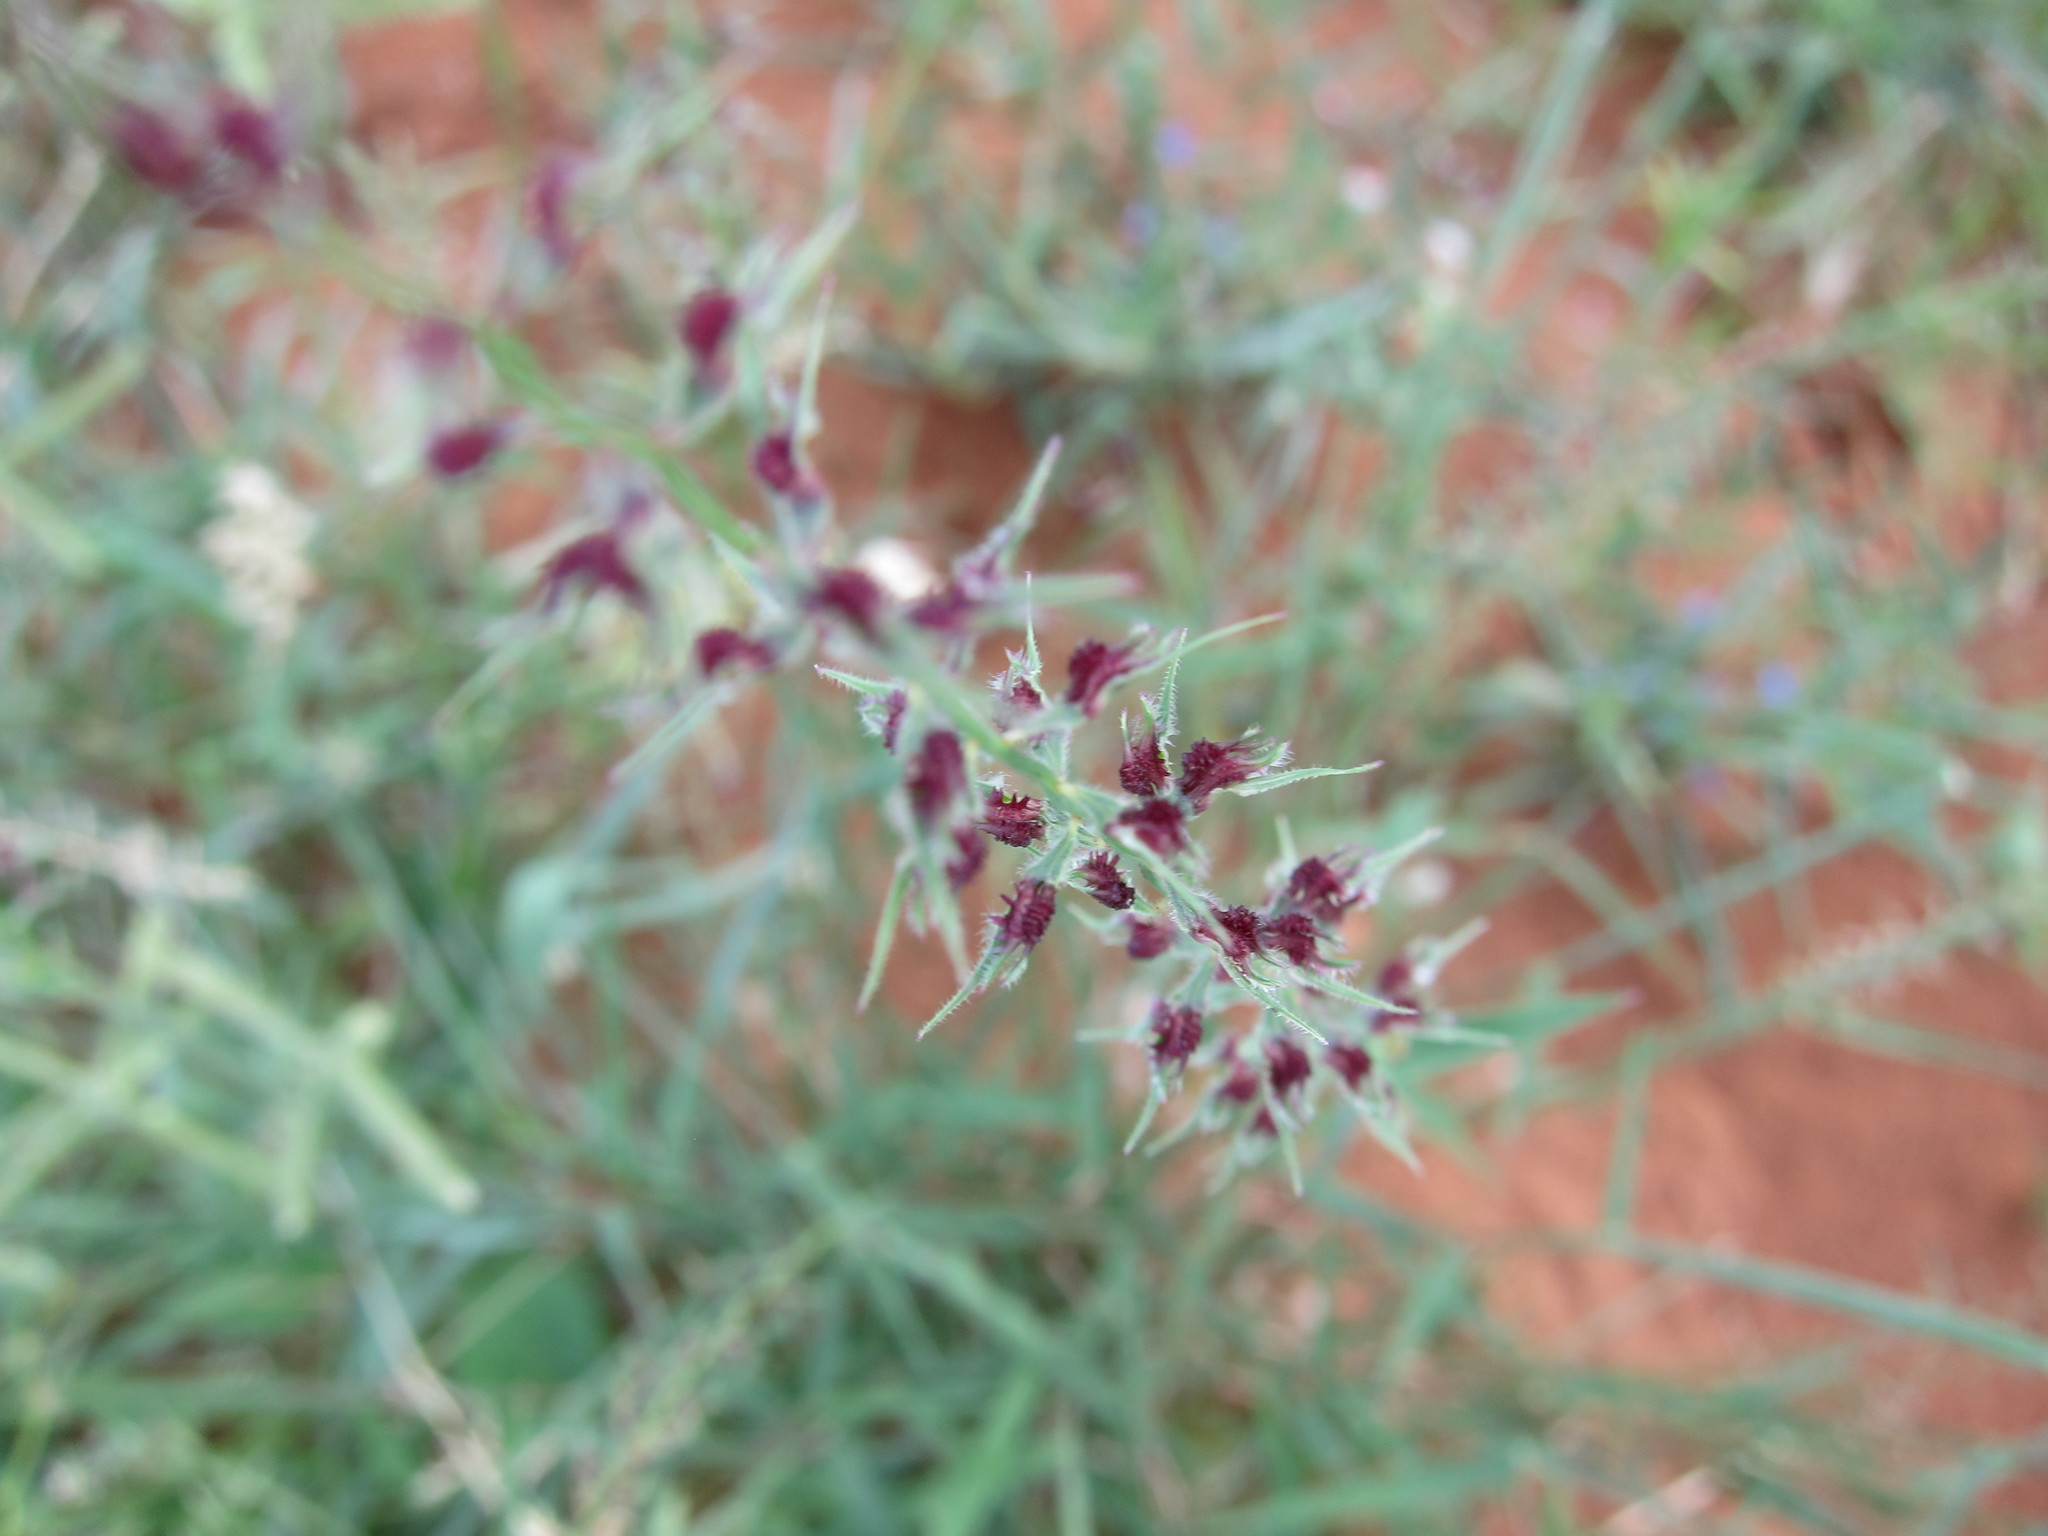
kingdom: Plantae
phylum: Tracheophyta
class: Liliopsida
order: Poales
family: Poaceae
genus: Leptothrium
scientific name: Leptothrium senegalense
